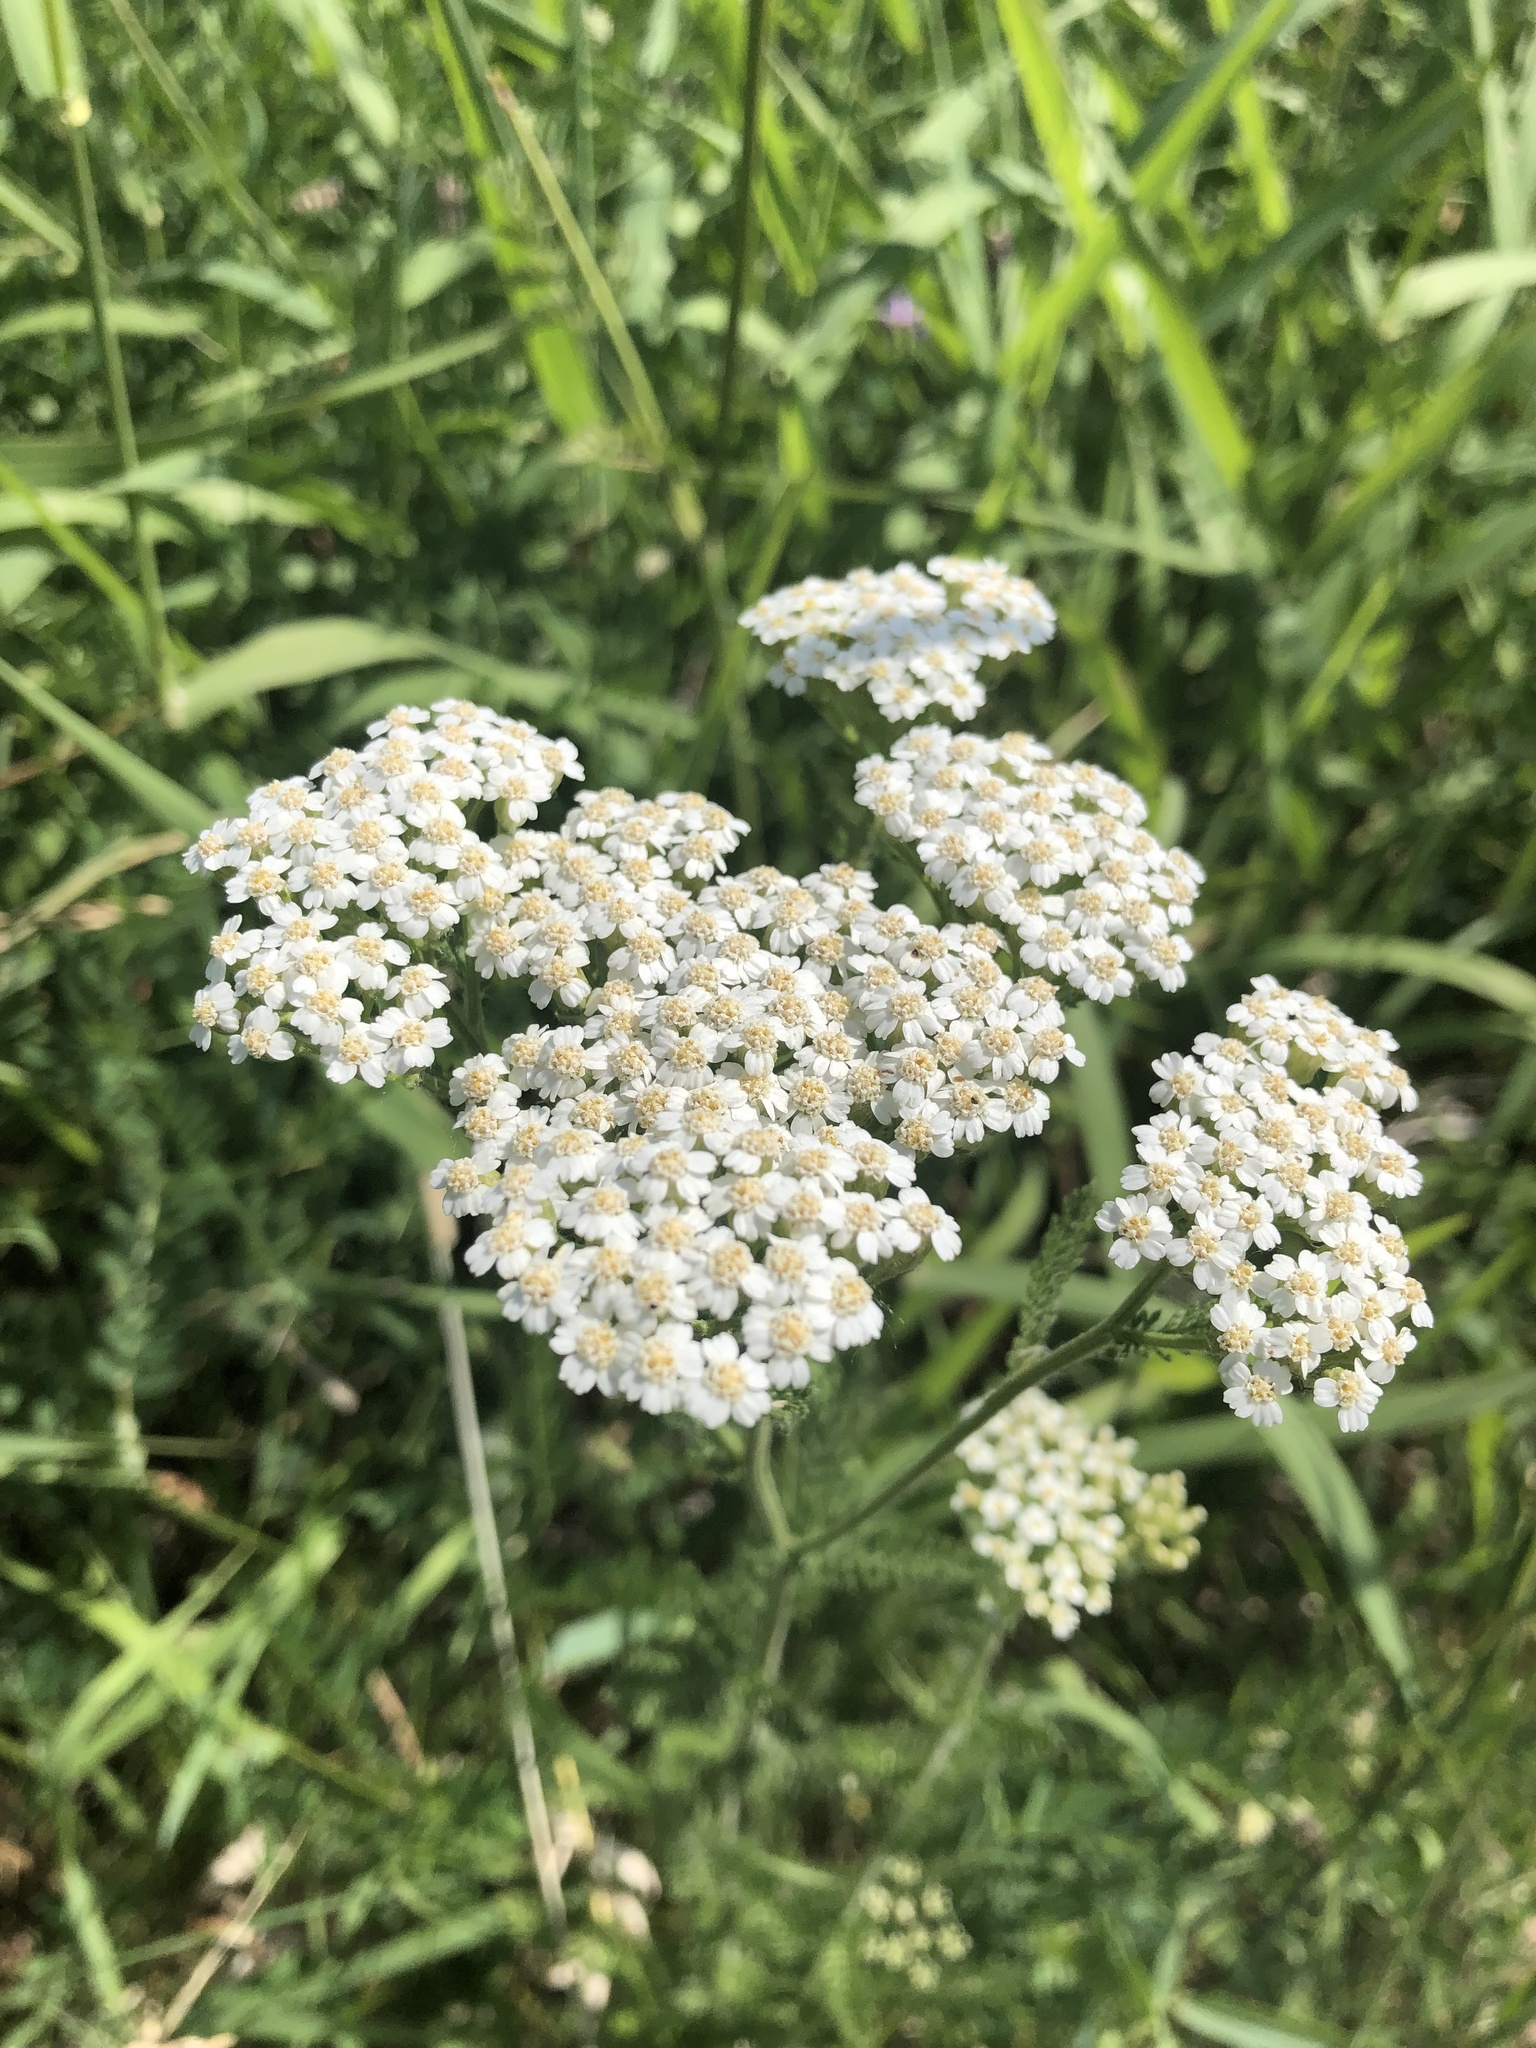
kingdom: Plantae
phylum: Tracheophyta
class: Magnoliopsida
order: Asterales
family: Asteraceae
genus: Achillea
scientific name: Achillea millefolium
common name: Yarrow
